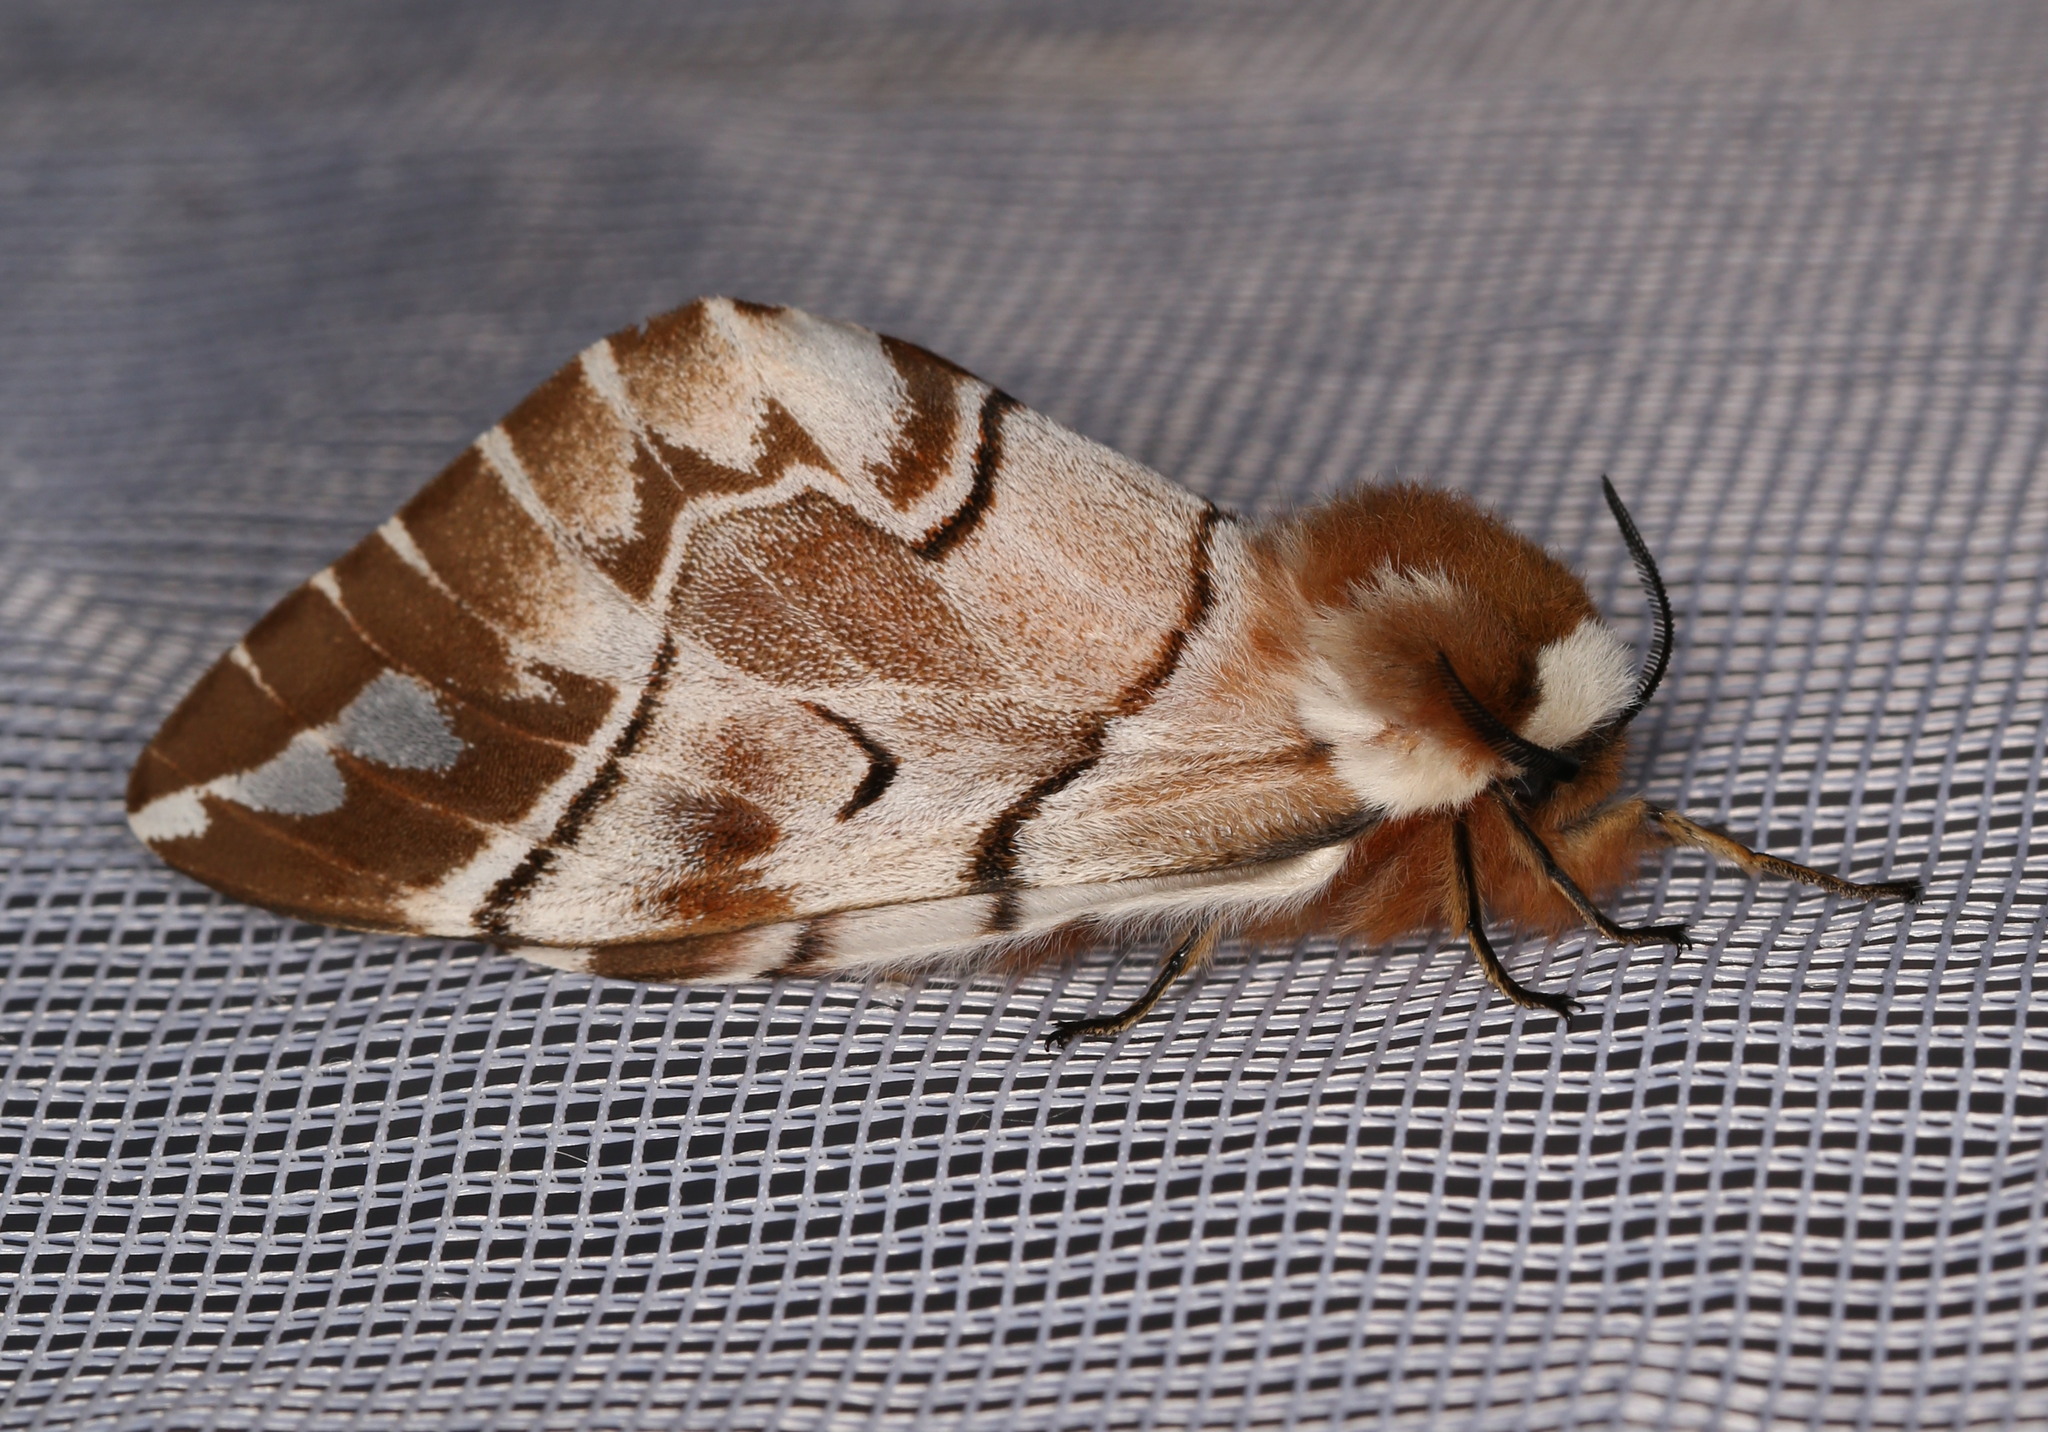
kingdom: Animalia
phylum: Arthropoda
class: Insecta
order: Lepidoptera
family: Endromidae
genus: Endromis
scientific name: Endromis versicolora
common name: Kentish glory
